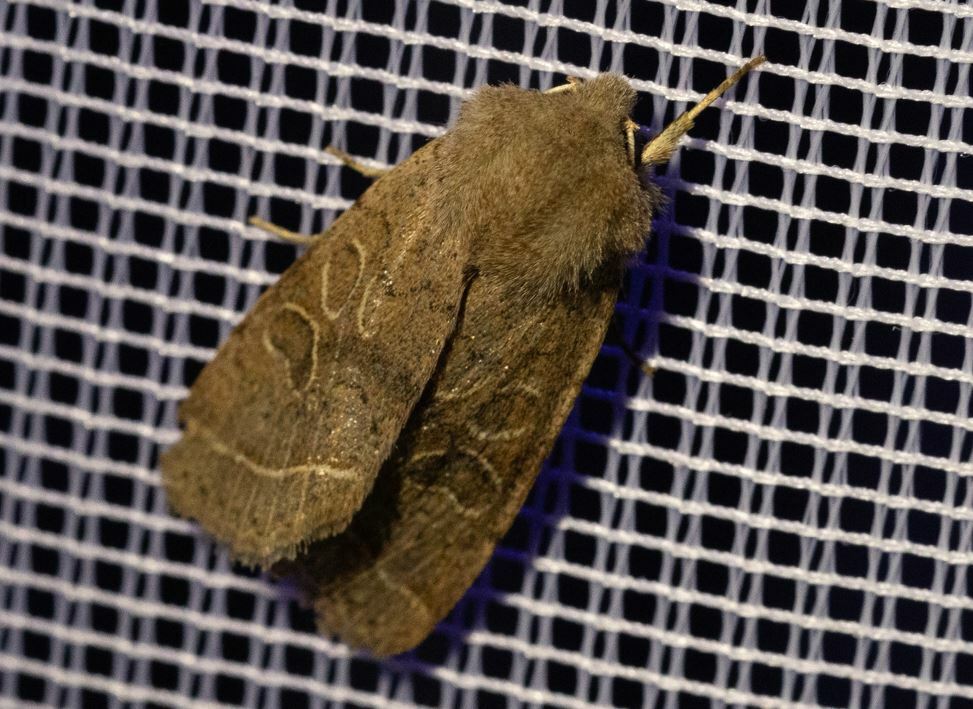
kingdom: Animalia
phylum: Arthropoda
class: Insecta
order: Lepidoptera
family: Noctuidae
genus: Orthosia
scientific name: Orthosia cerasi
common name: Common quaker
